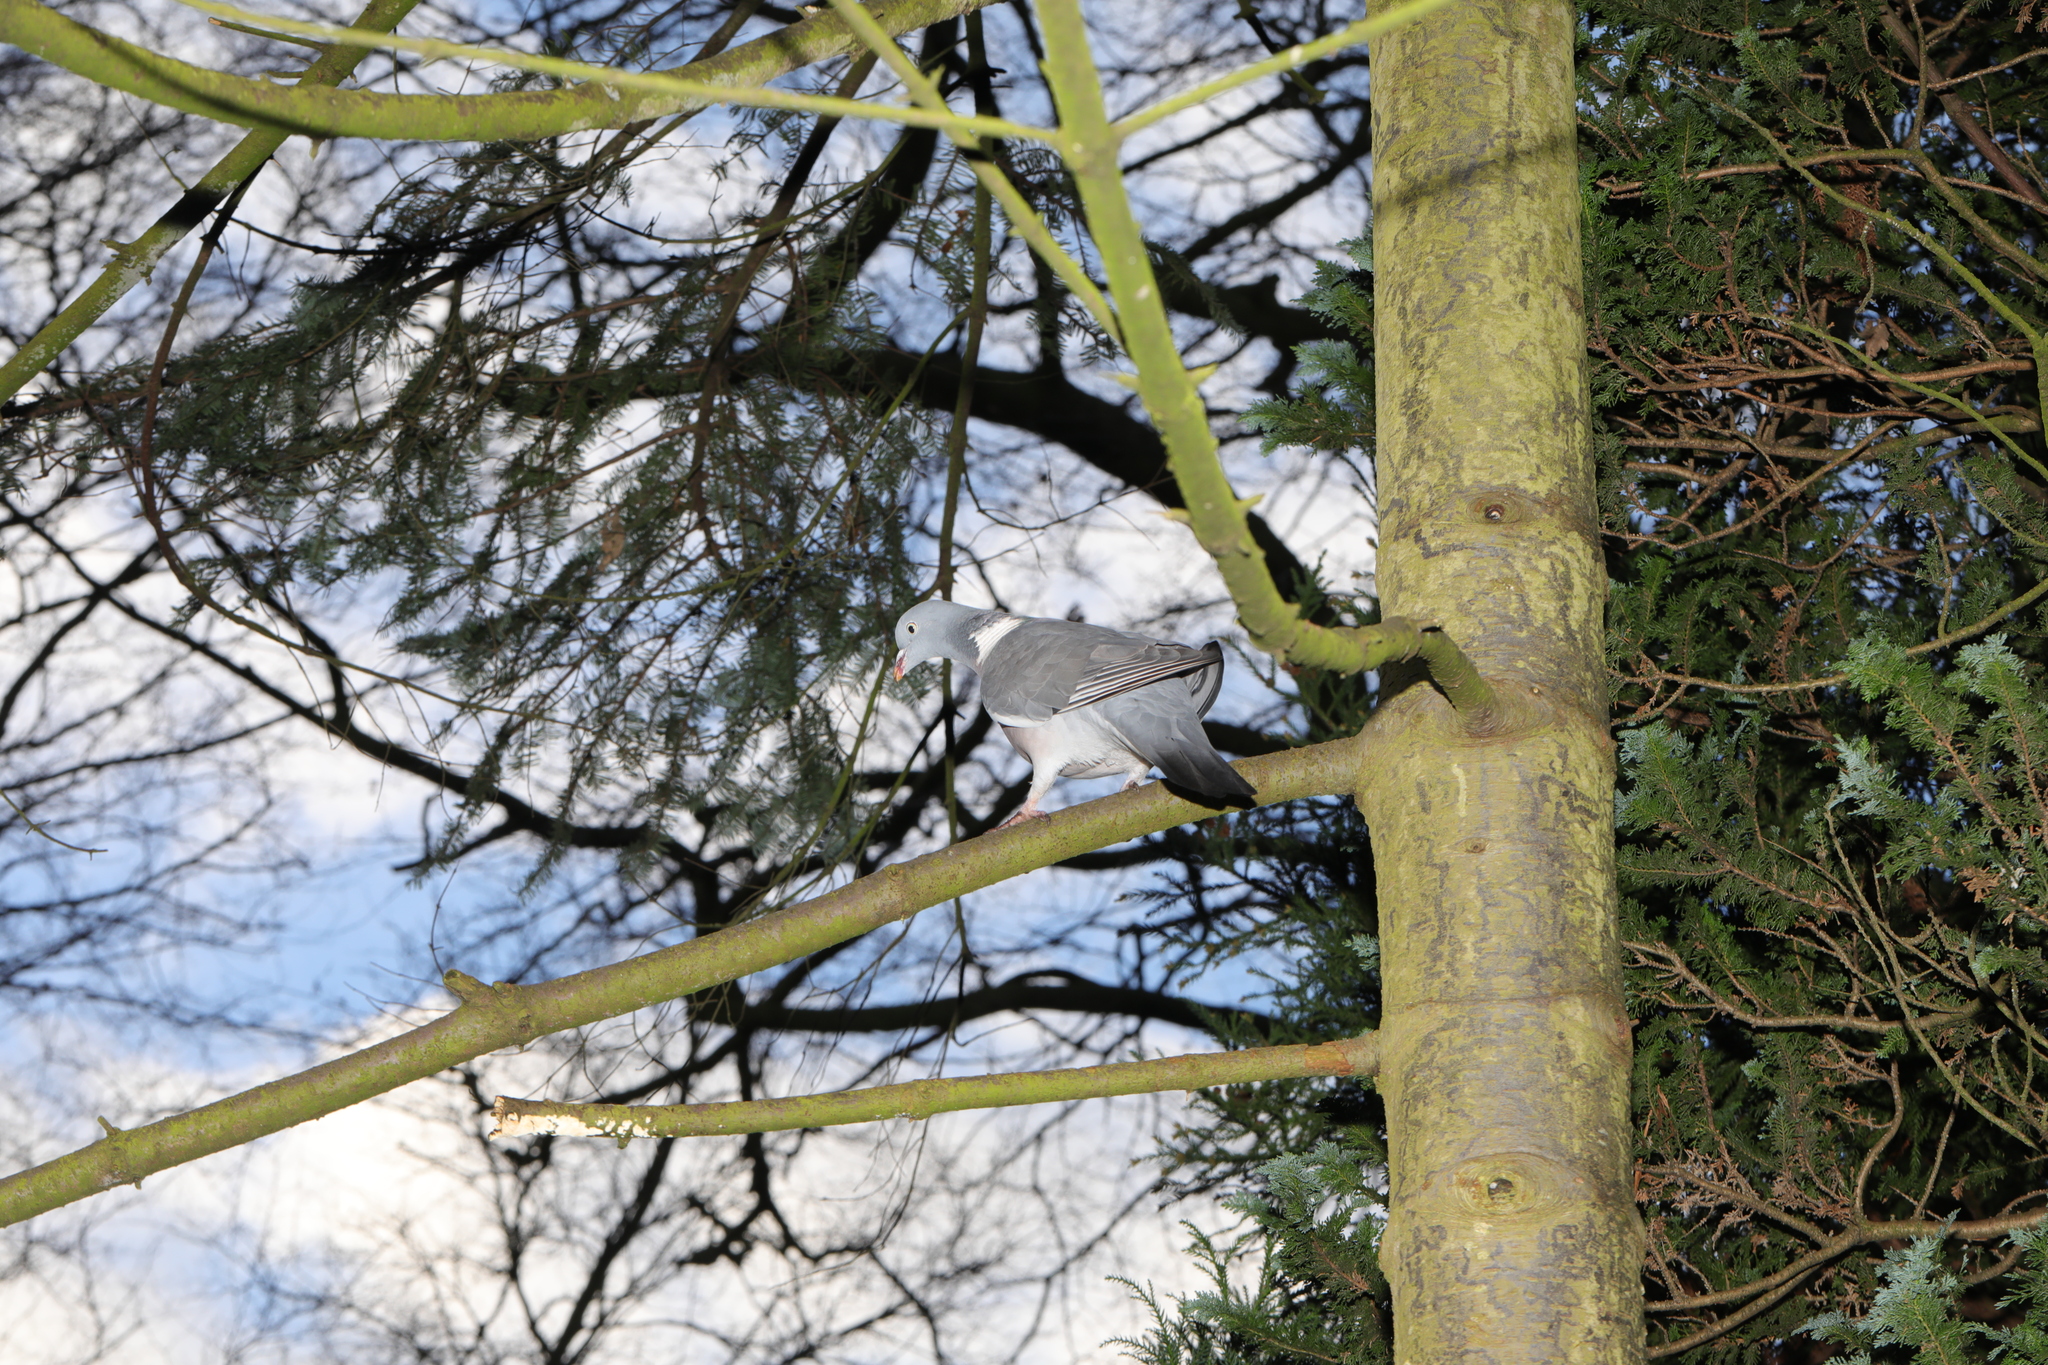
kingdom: Animalia
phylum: Chordata
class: Aves
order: Columbiformes
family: Columbidae
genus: Columba
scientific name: Columba palumbus
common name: Common wood pigeon
